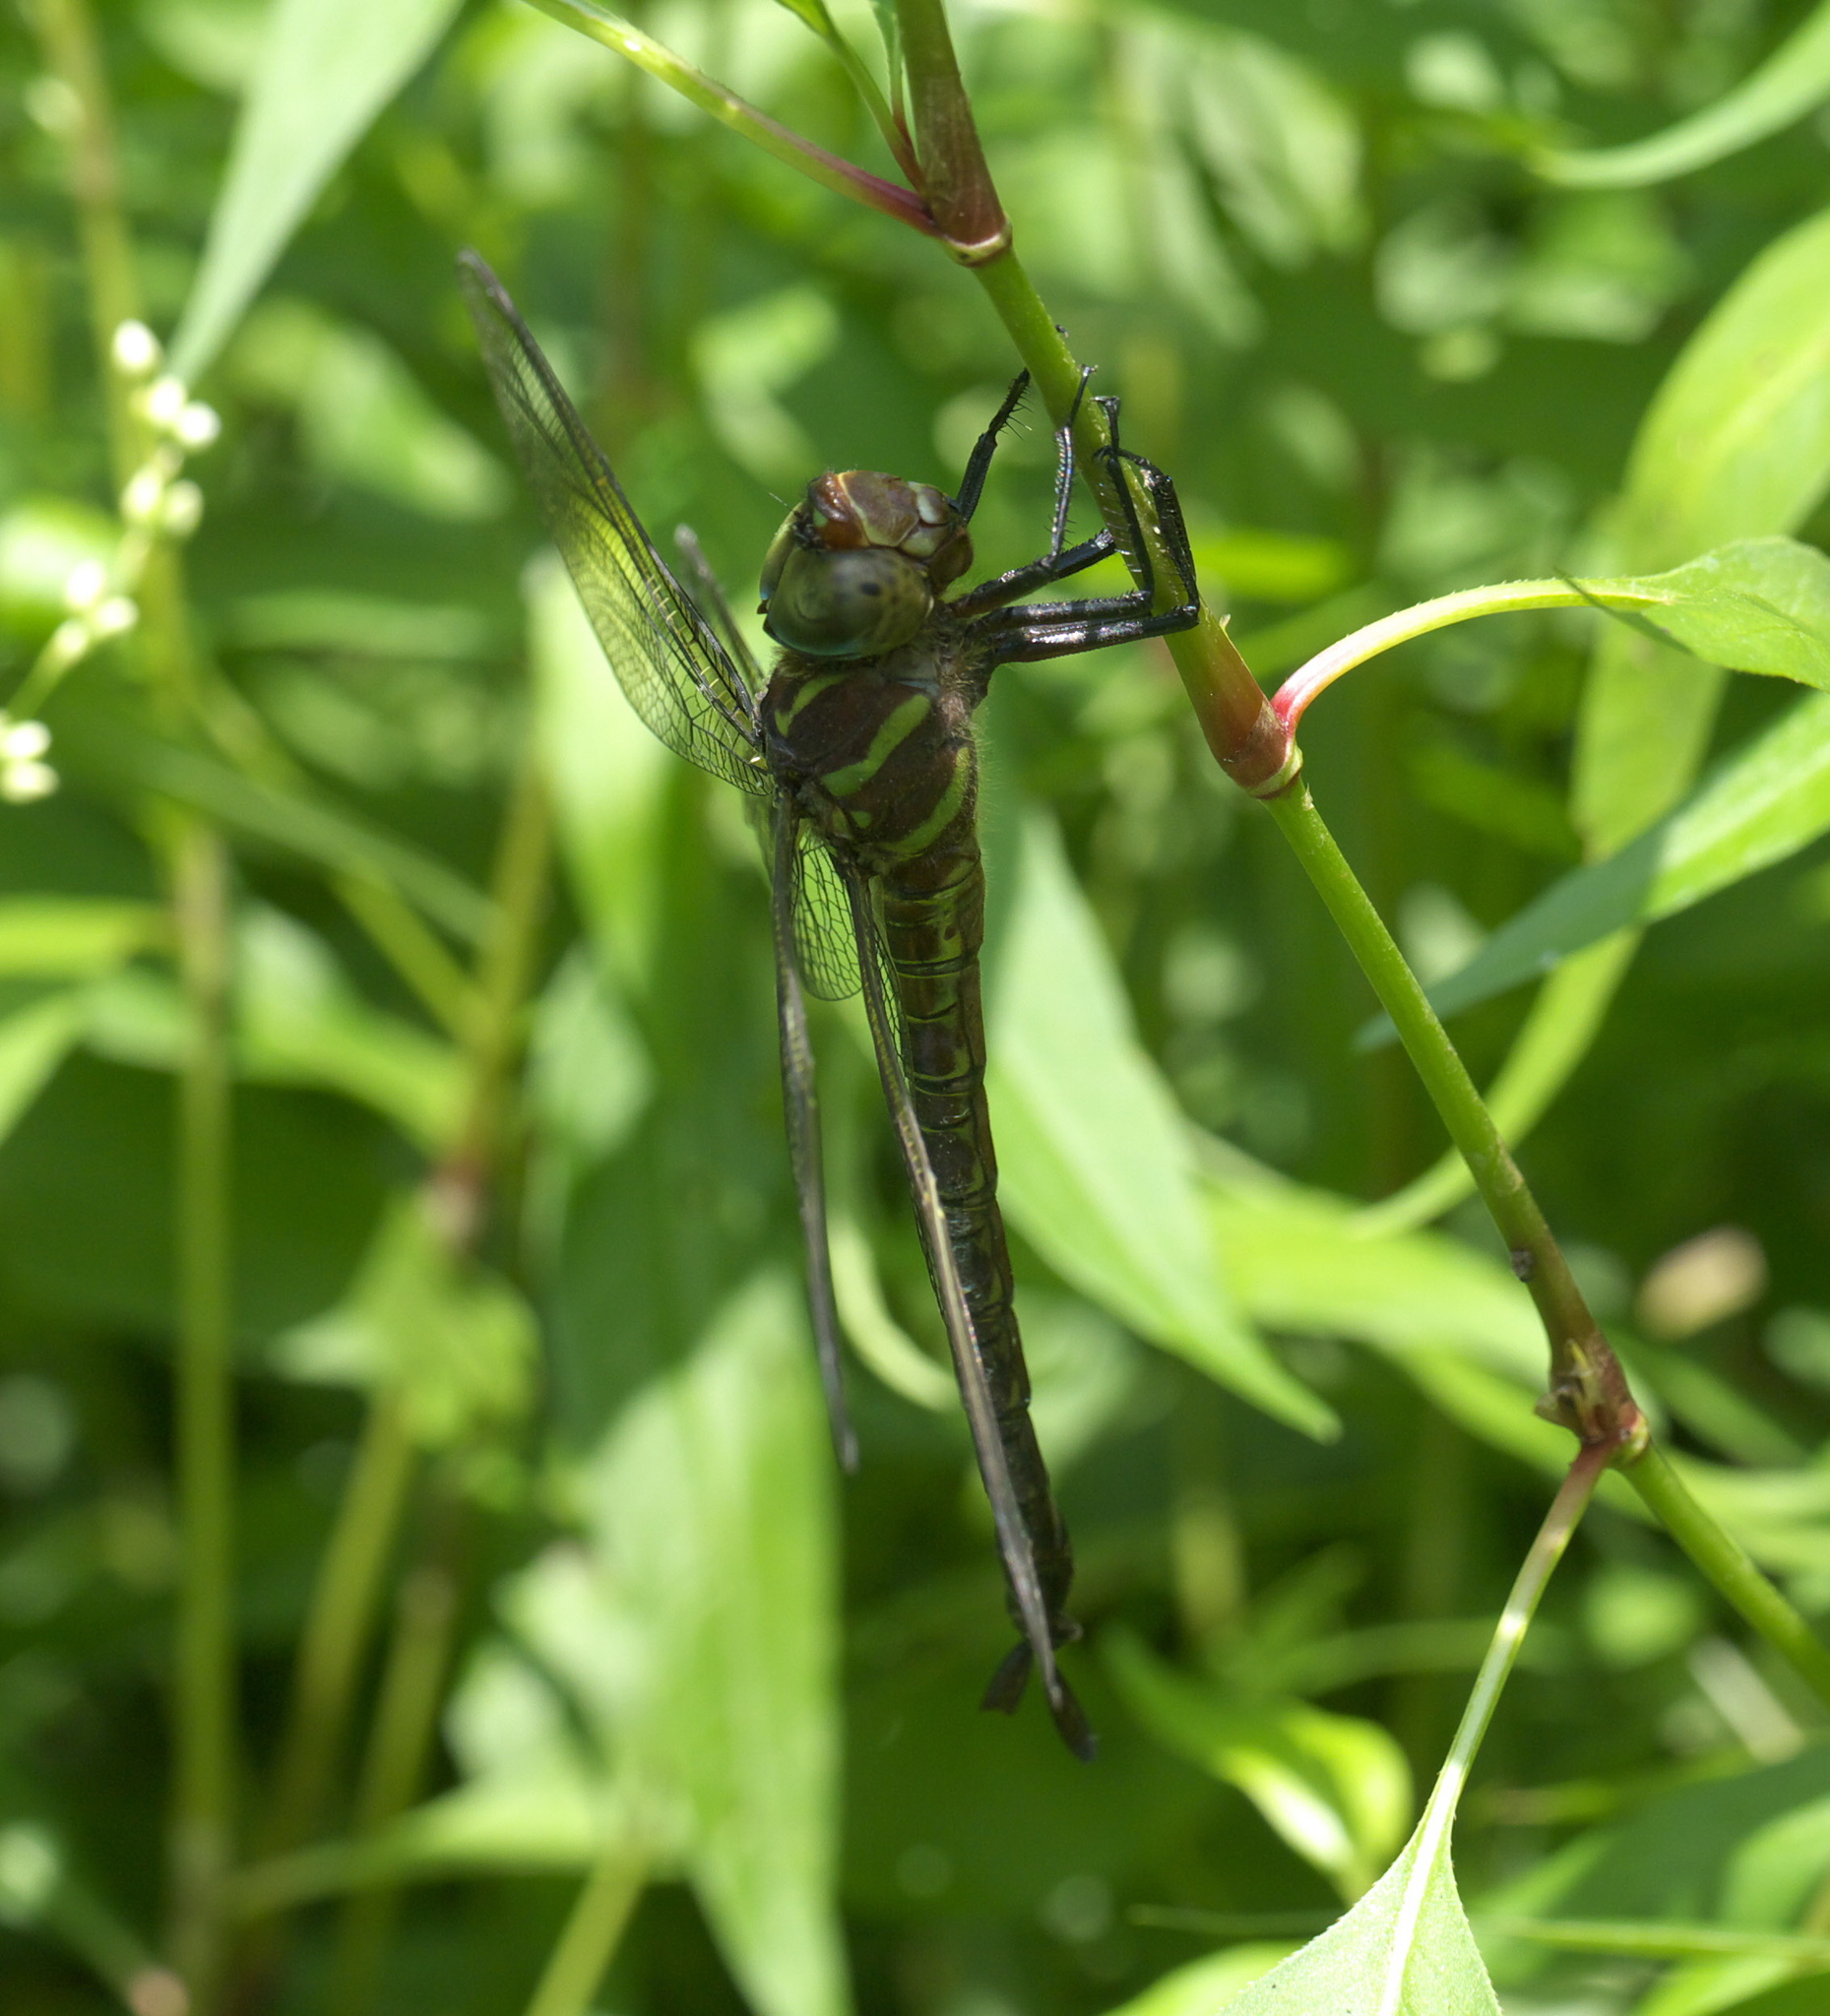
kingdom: Animalia
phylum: Arthropoda
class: Insecta
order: Odonata
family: Aeshnidae
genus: Epiaeschna
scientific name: Epiaeschna heros
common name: Swamp darner
